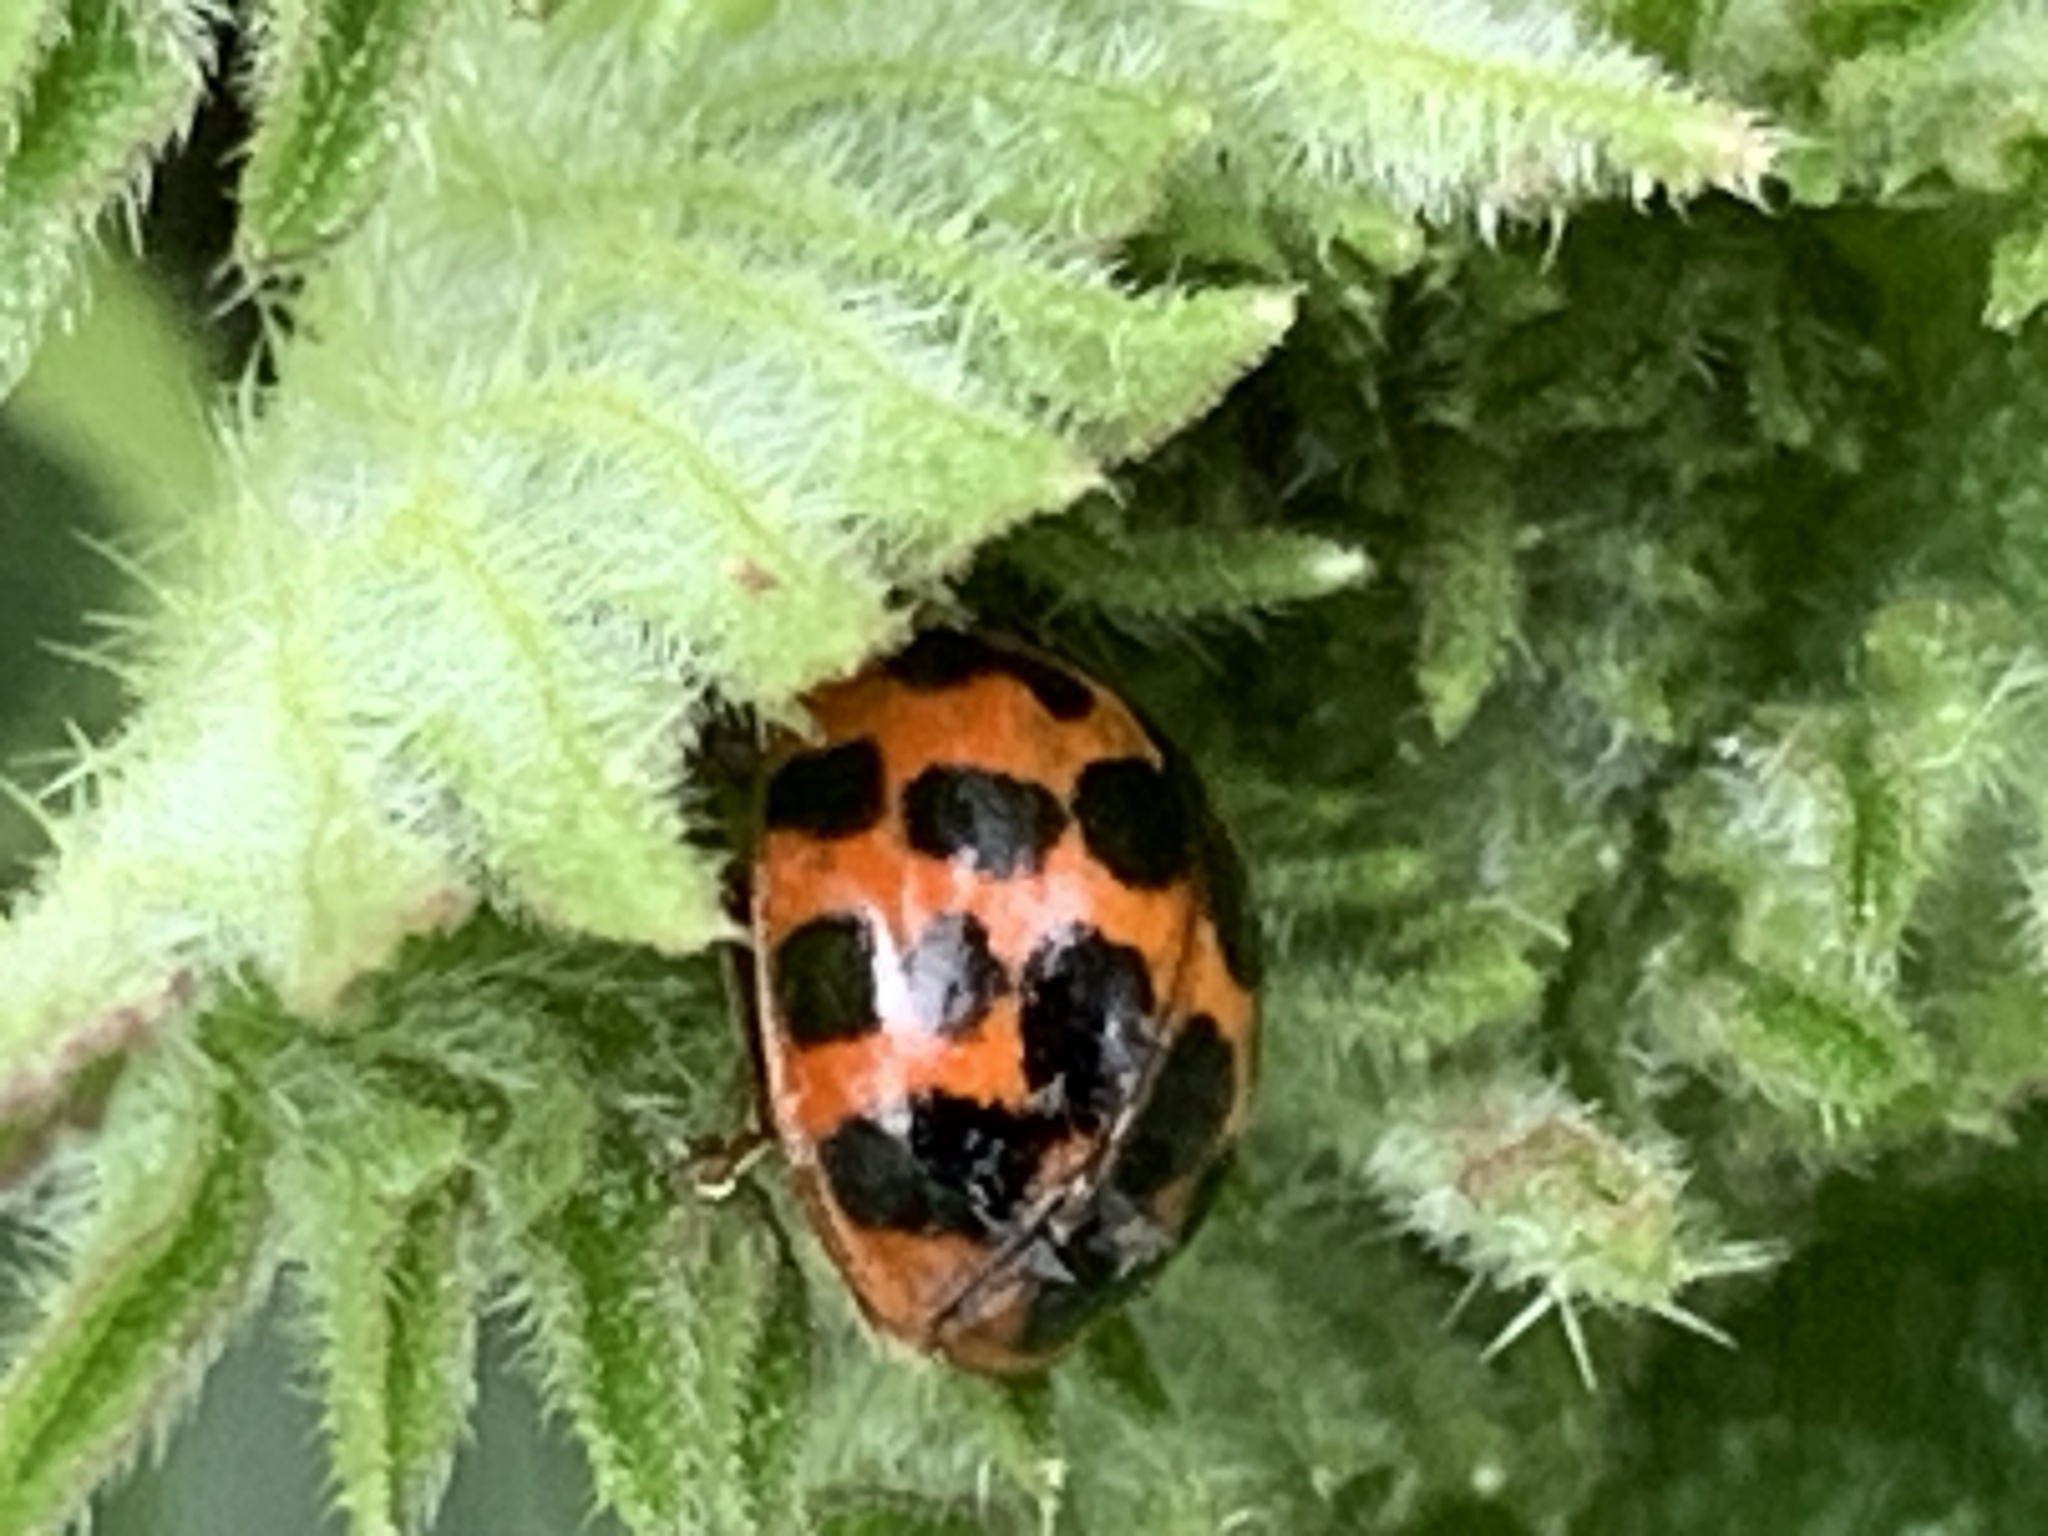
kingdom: Animalia
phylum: Arthropoda
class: Insecta
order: Coleoptera
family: Coccinellidae
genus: Harmonia
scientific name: Harmonia axyridis
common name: Harlequin ladybird
